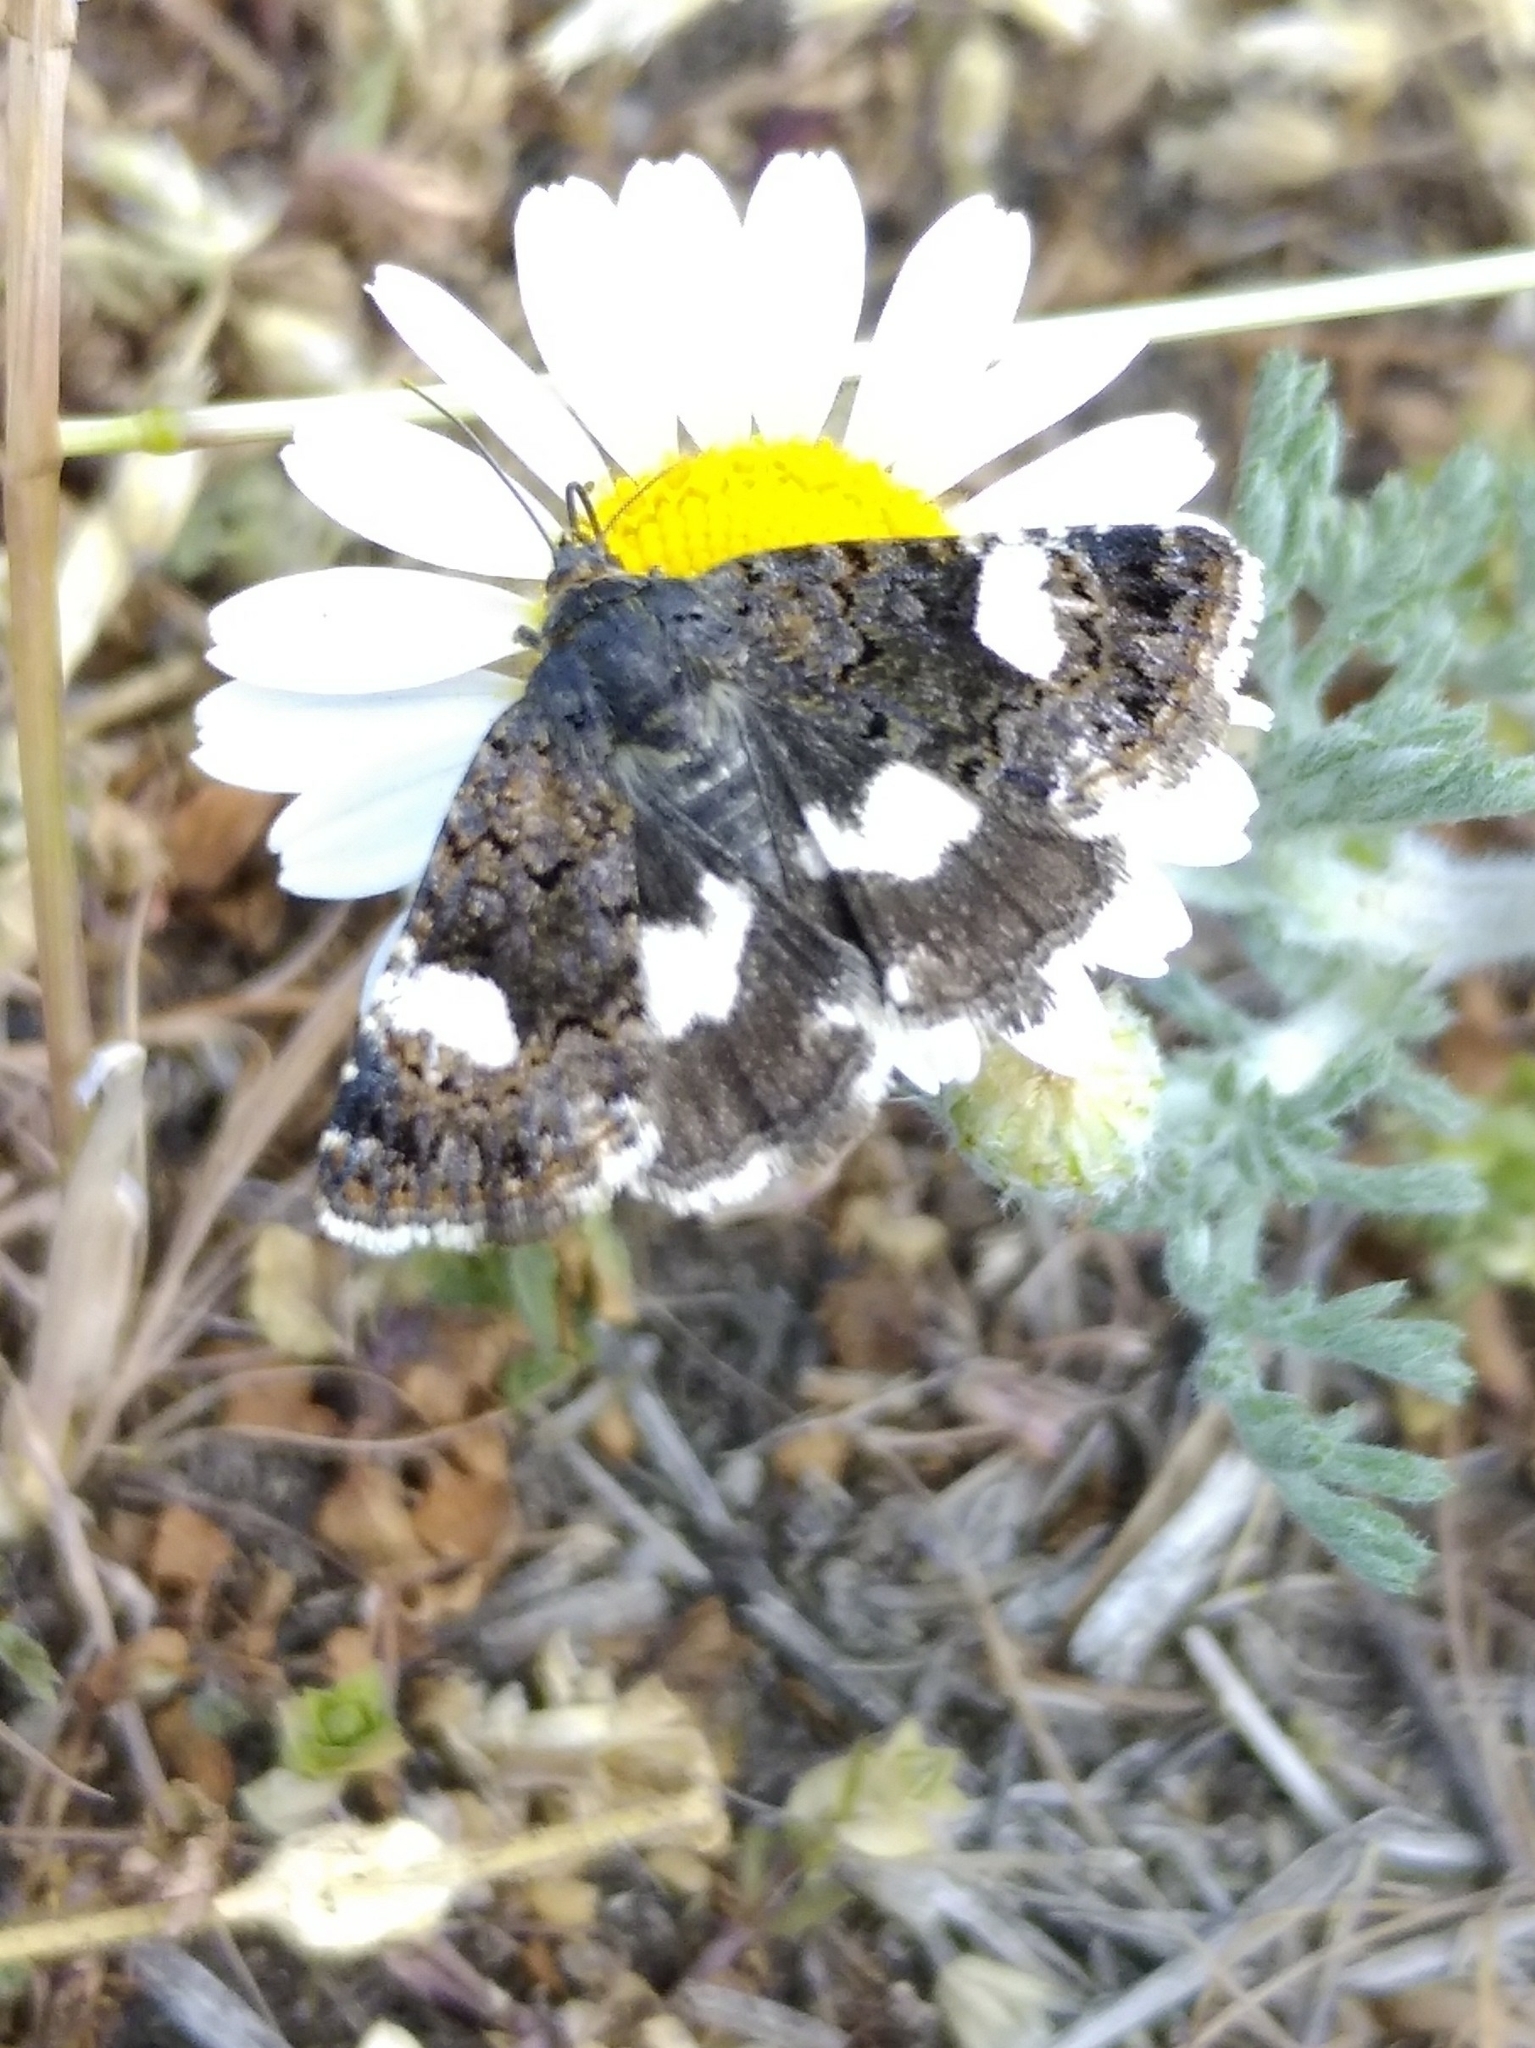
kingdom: Animalia
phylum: Arthropoda
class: Insecta
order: Lepidoptera
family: Erebidae
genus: Tyta
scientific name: Tyta luctuosa
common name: Four-spotted
